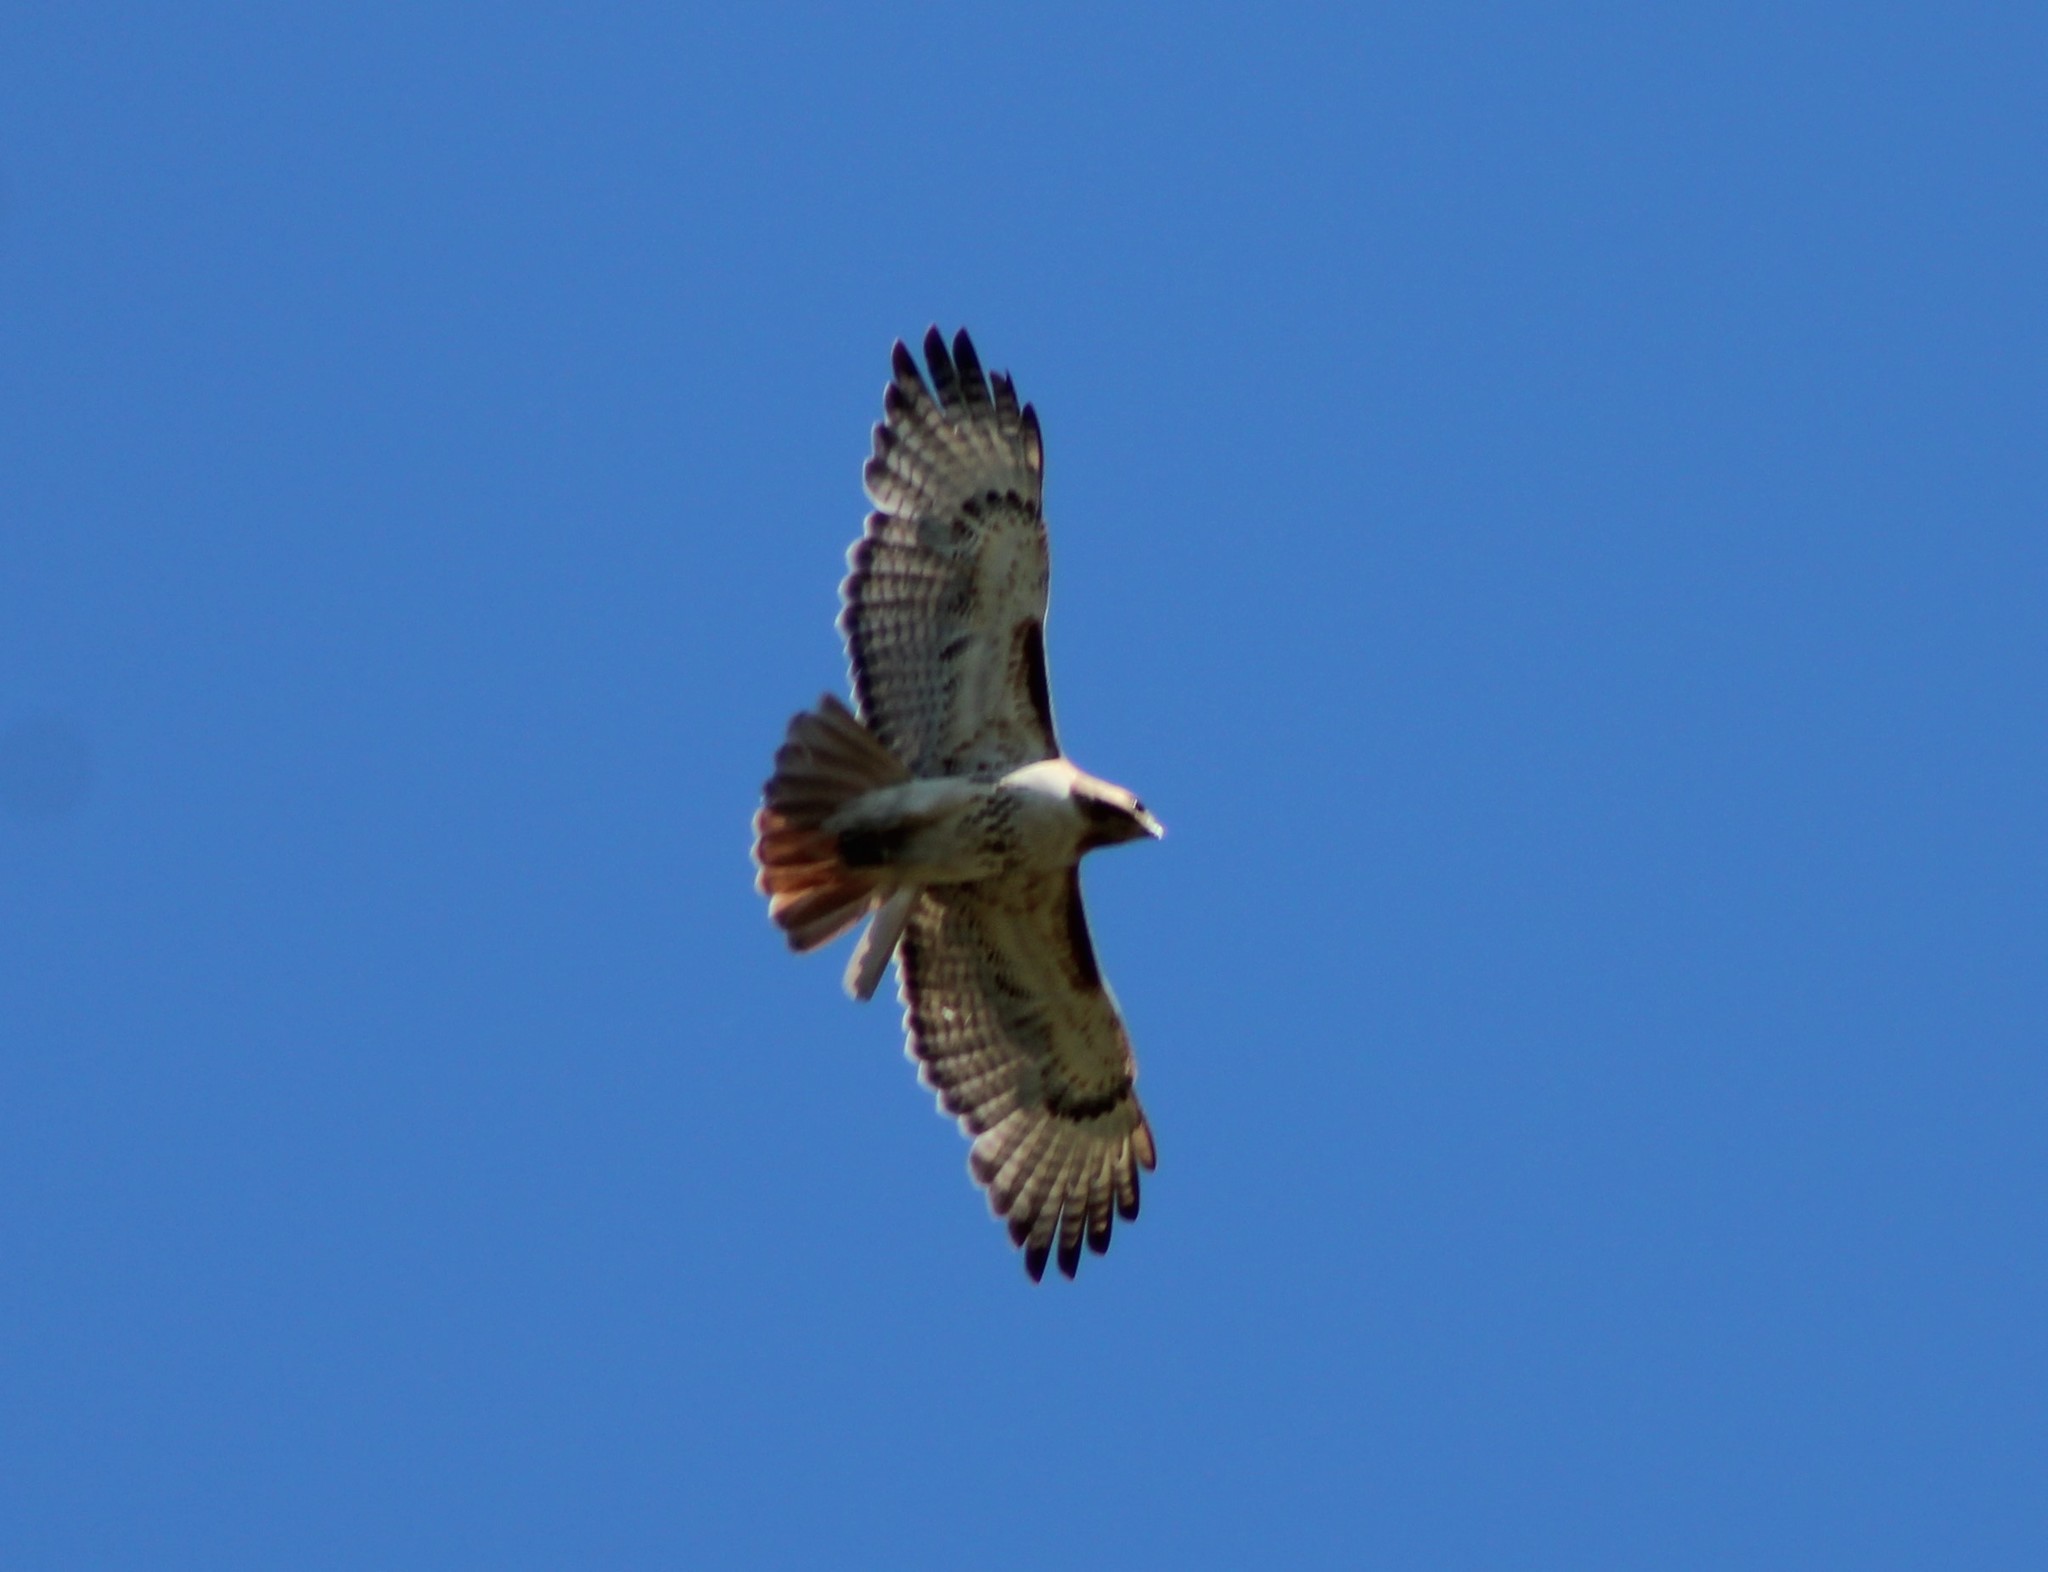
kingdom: Animalia
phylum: Chordata
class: Aves
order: Accipitriformes
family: Accipitridae
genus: Buteo
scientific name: Buteo jamaicensis
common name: Red-tailed hawk
